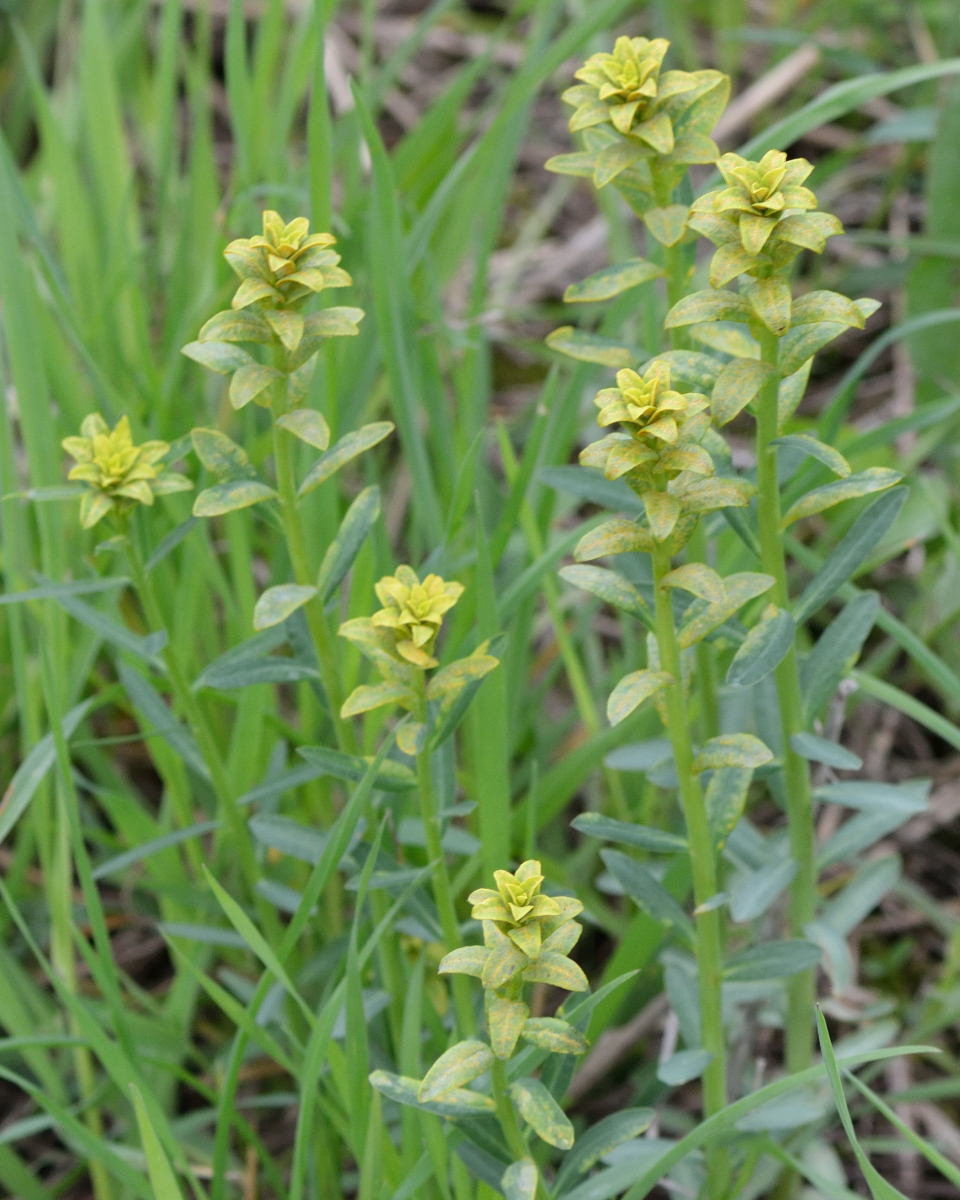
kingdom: Plantae
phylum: Tracheophyta
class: Magnoliopsida
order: Malpighiales
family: Euphorbiaceae
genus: Euphorbia
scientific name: Euphorbia virgata
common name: Leafy spurge
